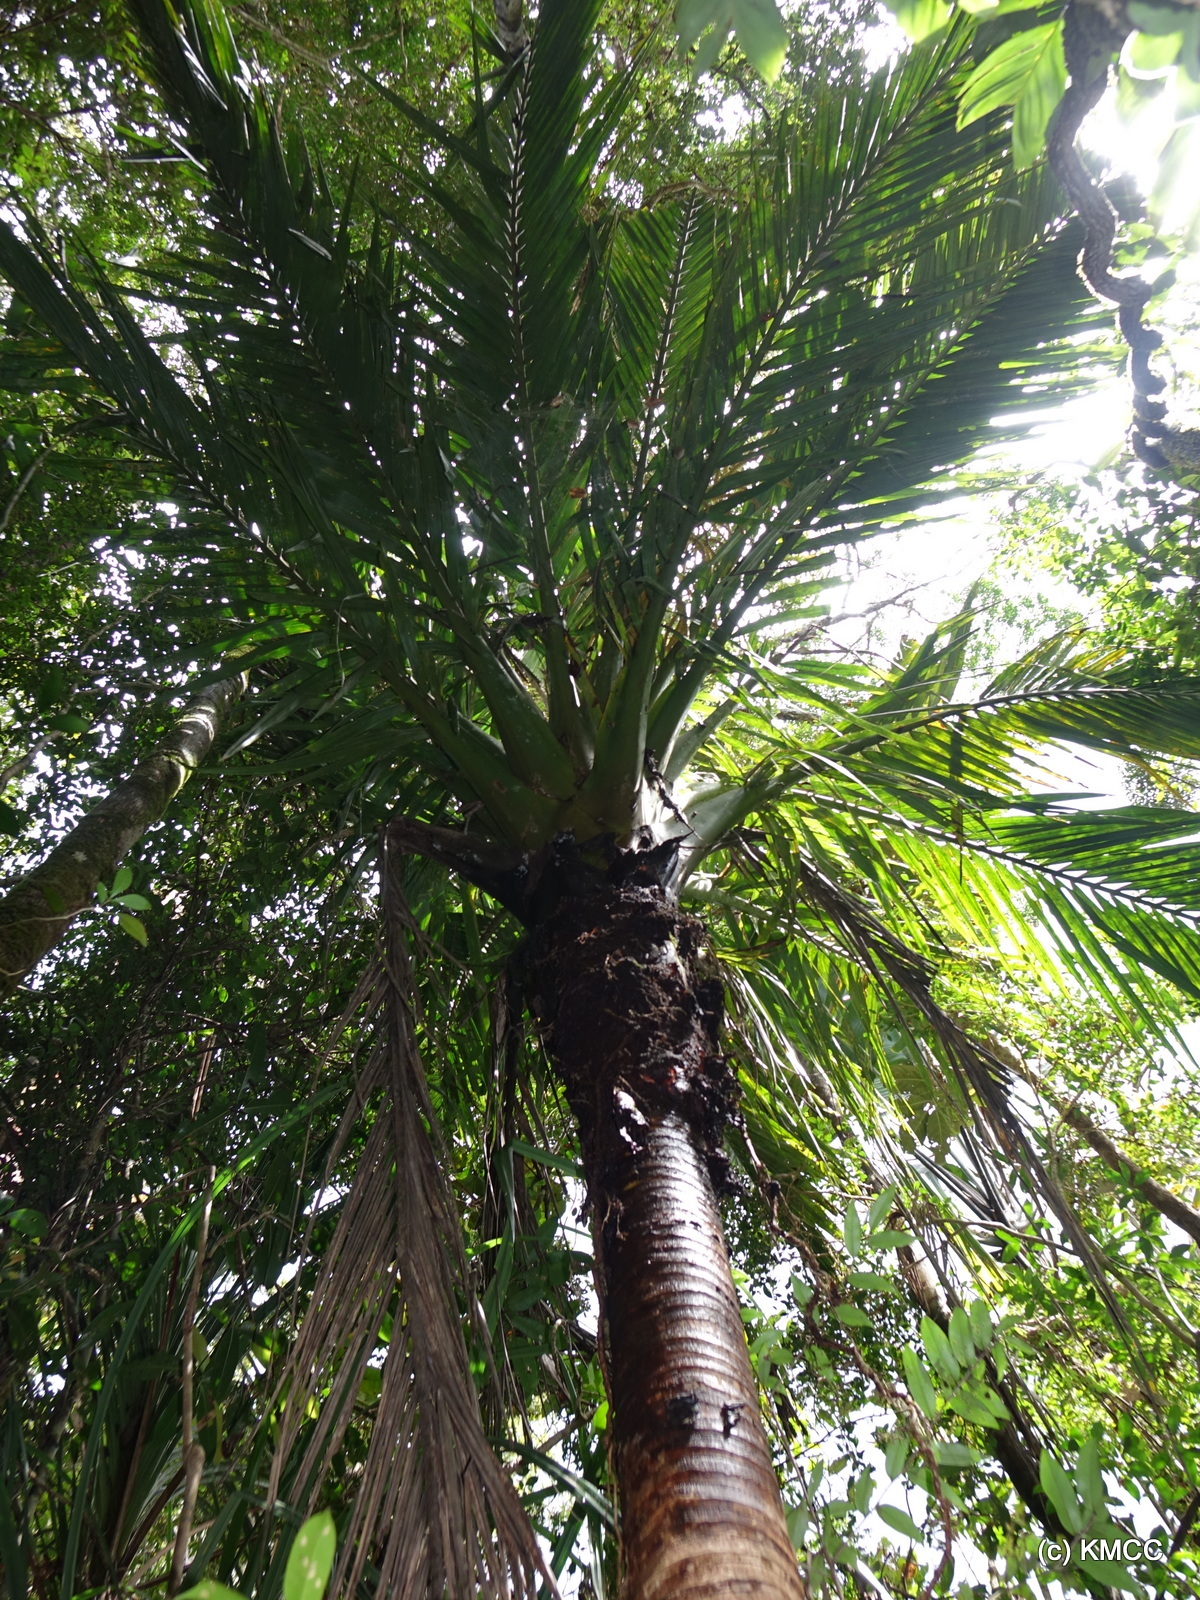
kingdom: Plantae
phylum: Tracheophyta
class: Liliopsida
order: Arecales
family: Arecaceae
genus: Masoala
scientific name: Masoala madagascariensis
